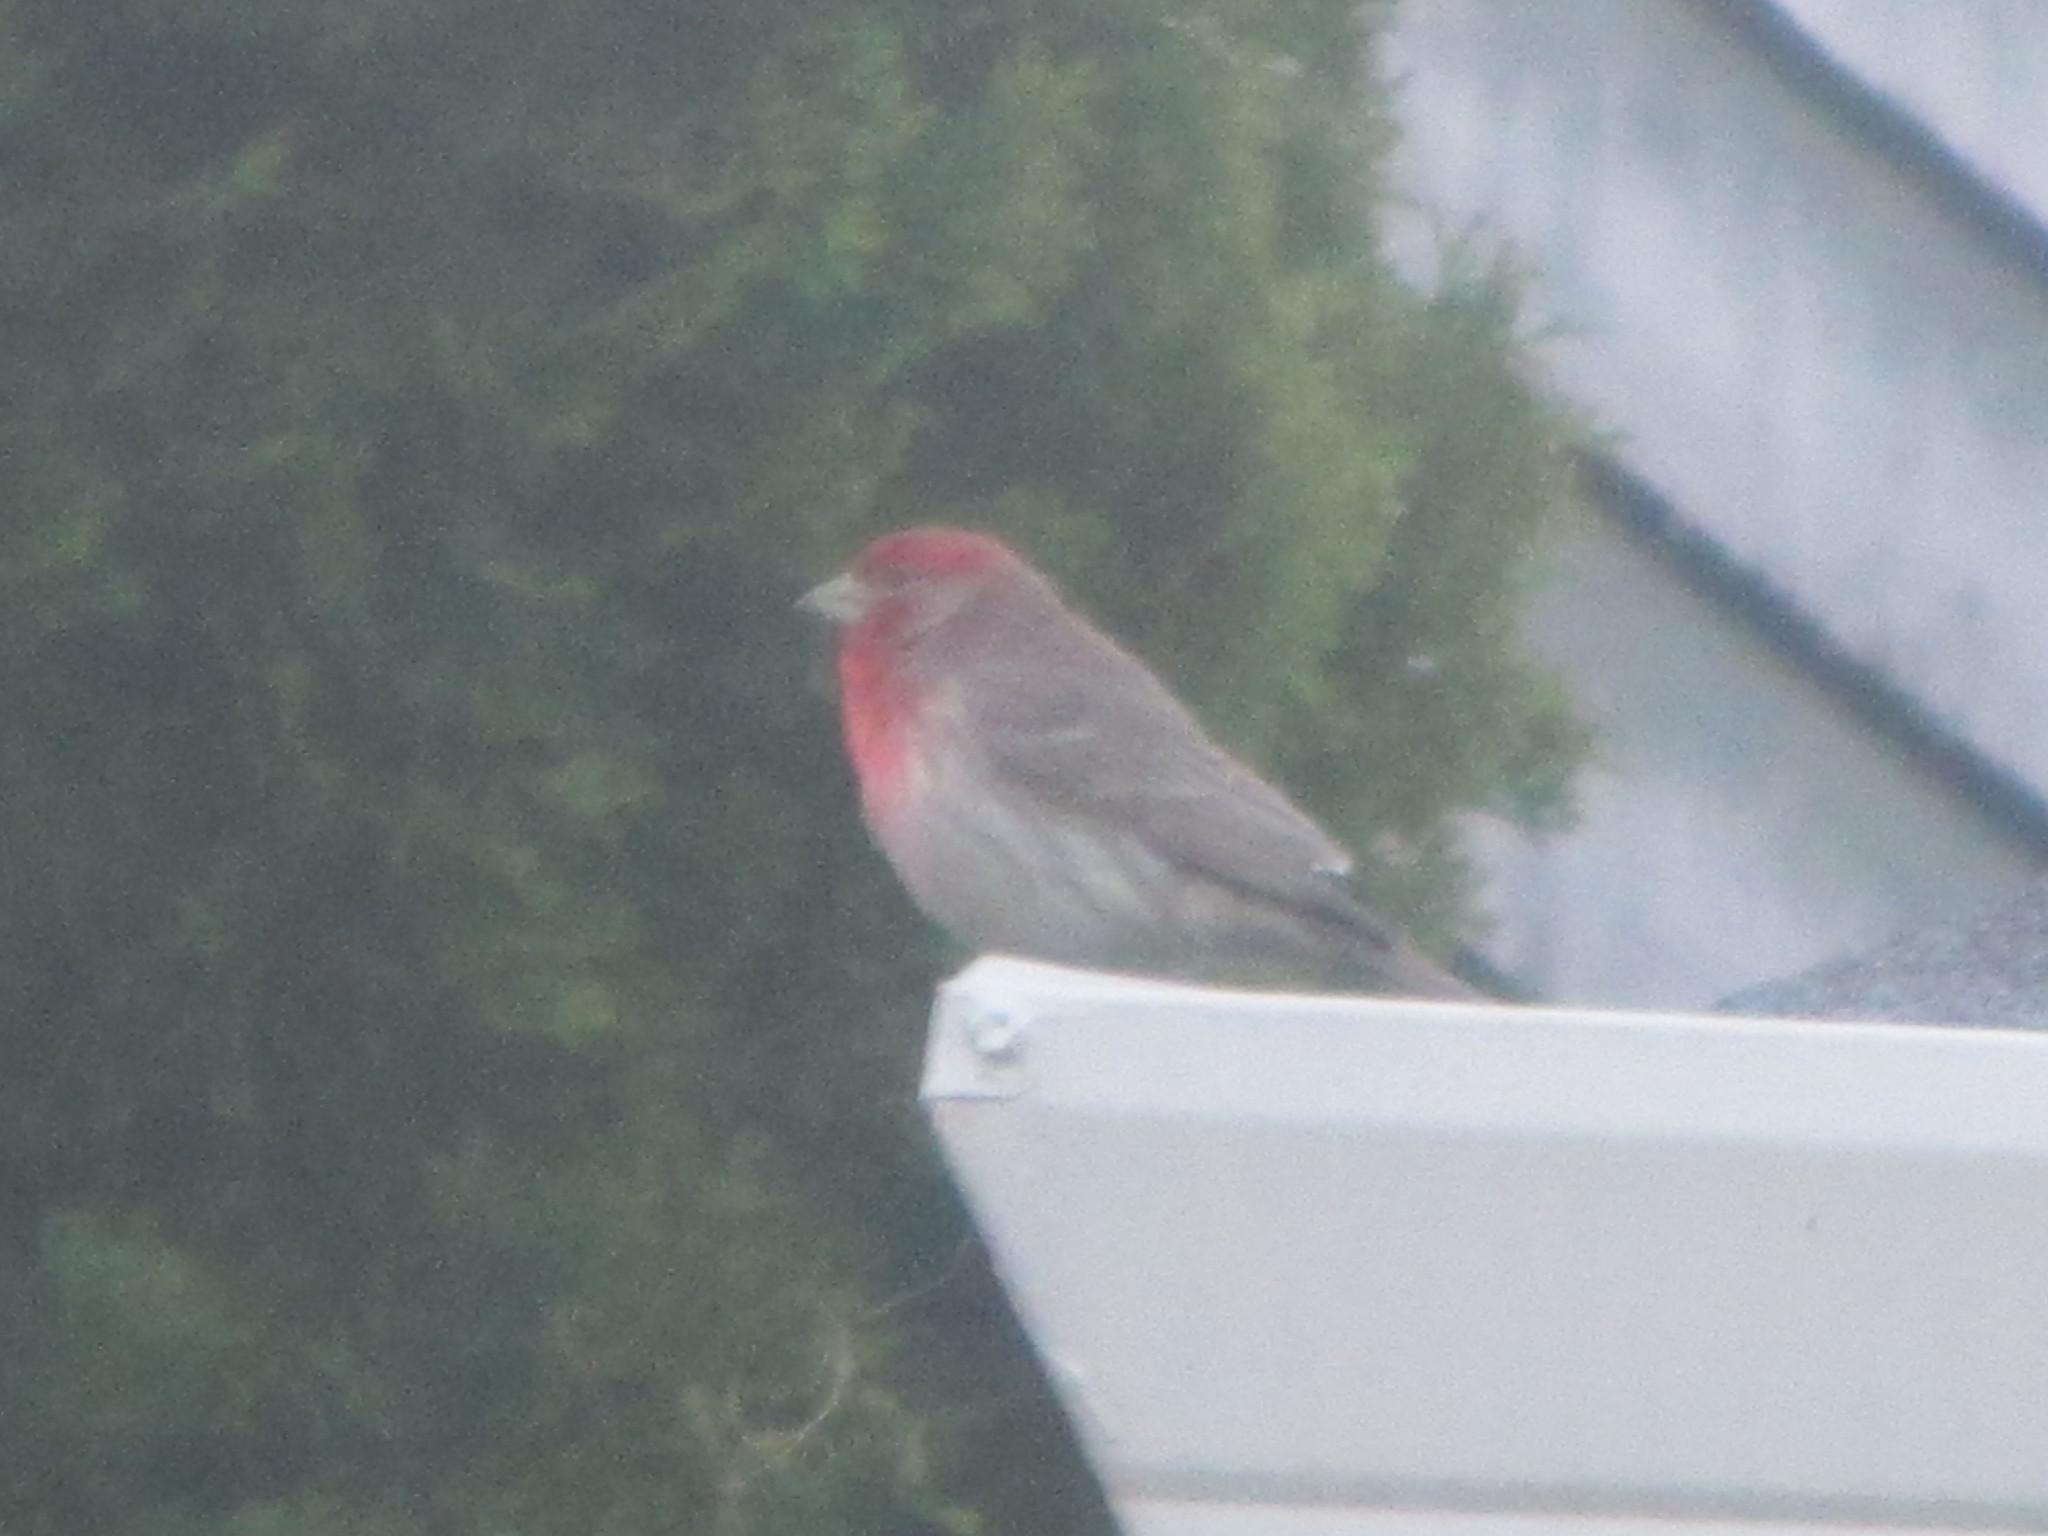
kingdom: Animalia
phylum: Chordata
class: Aves
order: Passeriformes
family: Fringillidae
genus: Haemorhous
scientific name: Haemorhous mexicanus
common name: House finch
